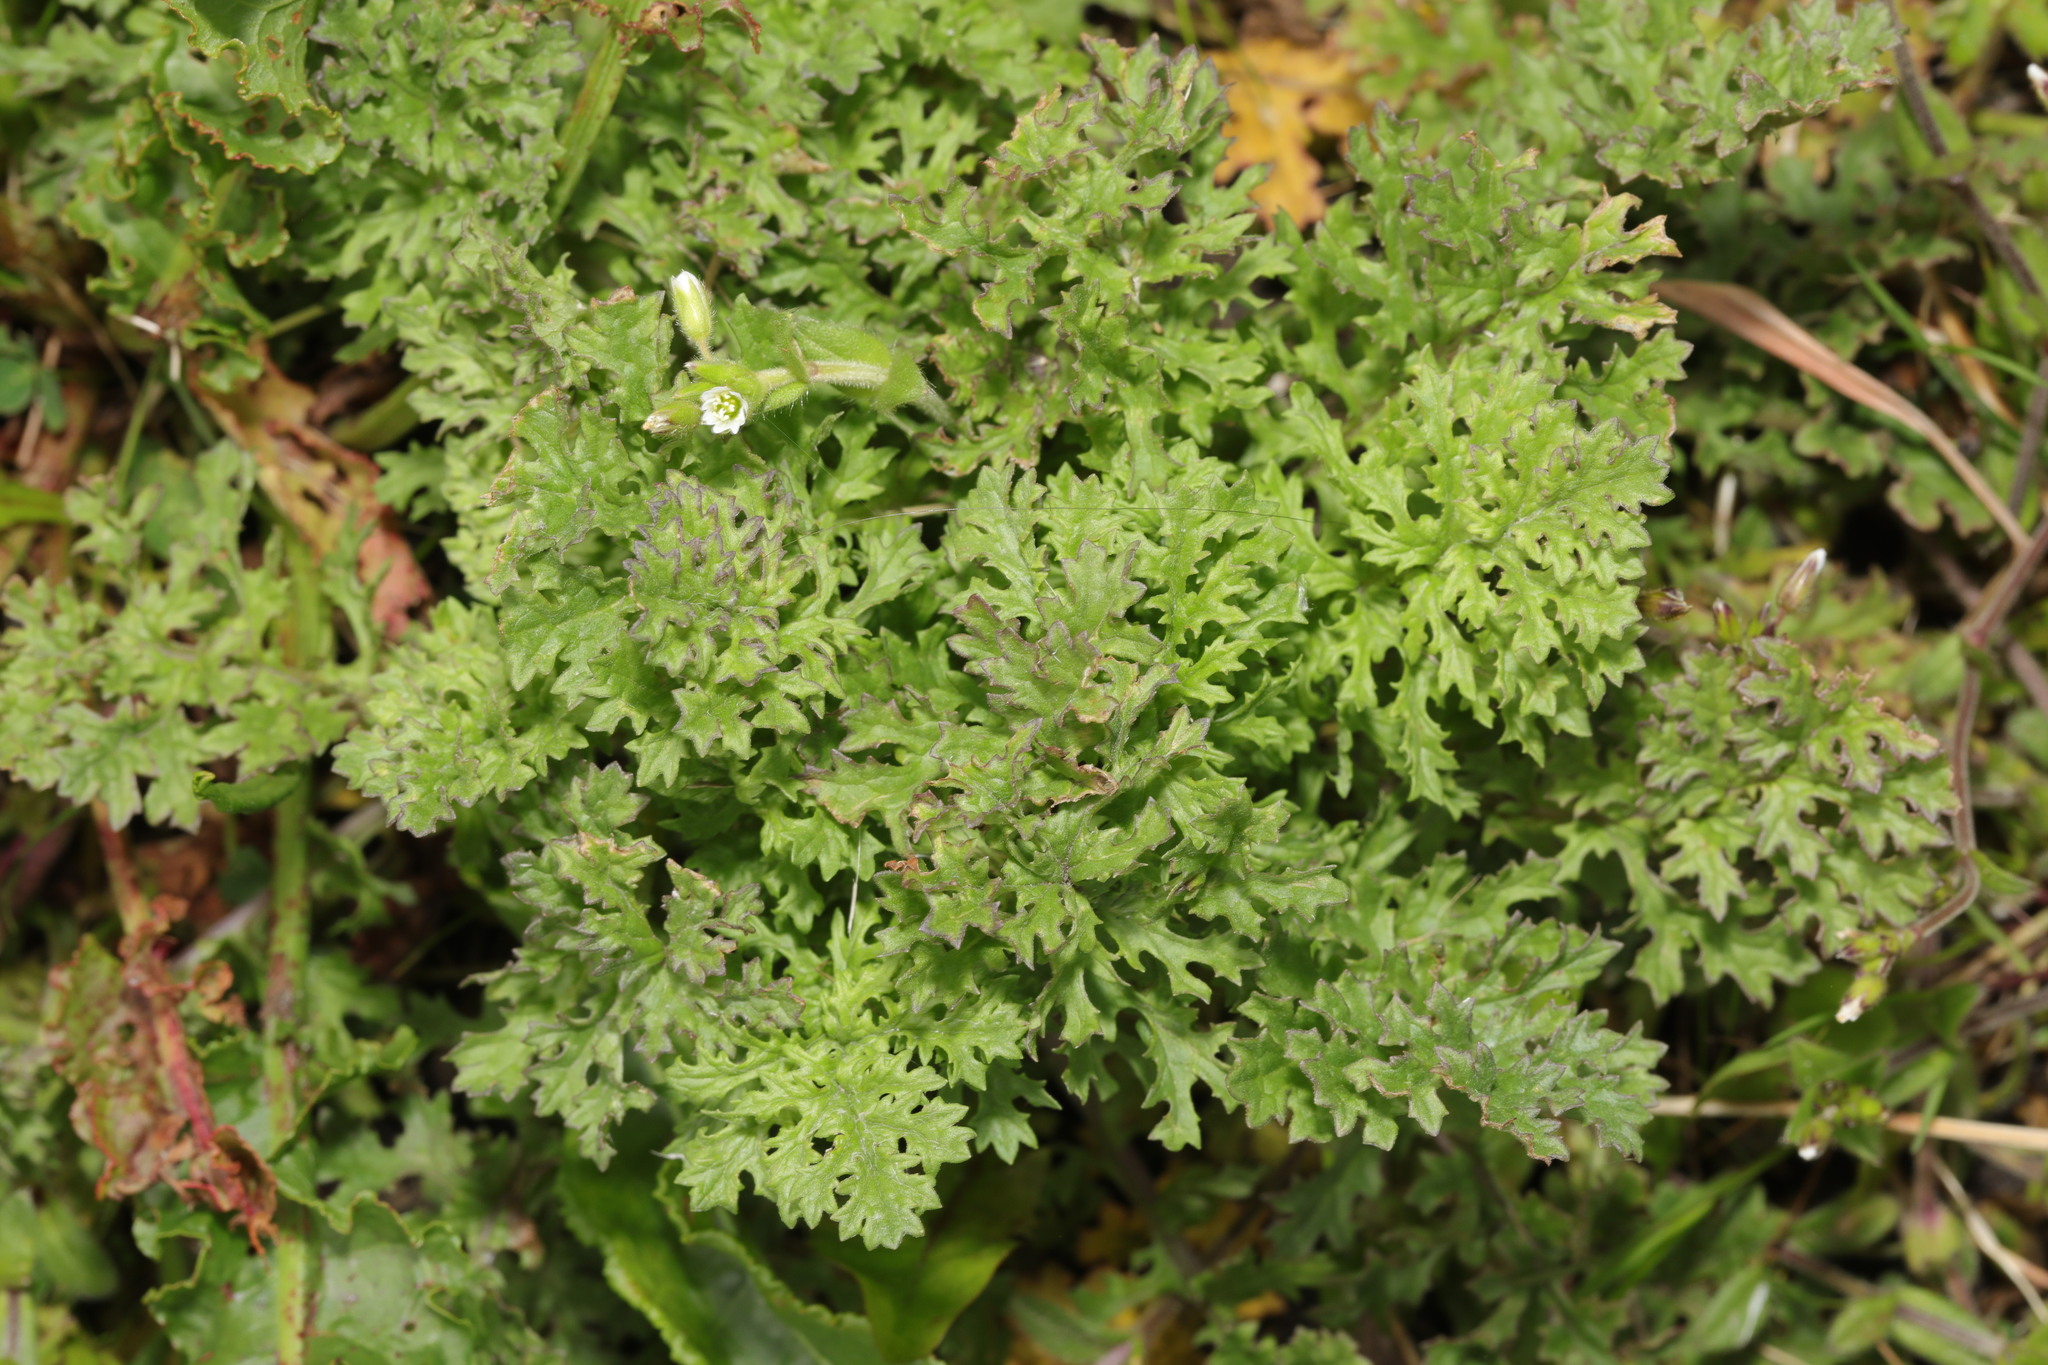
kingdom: Plantae
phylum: Tracheophyta
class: Magnoliopsida
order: Asterales
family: Asteraceae
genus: Jacobaea
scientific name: Jacobaea vulgaris
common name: Stinking willie
